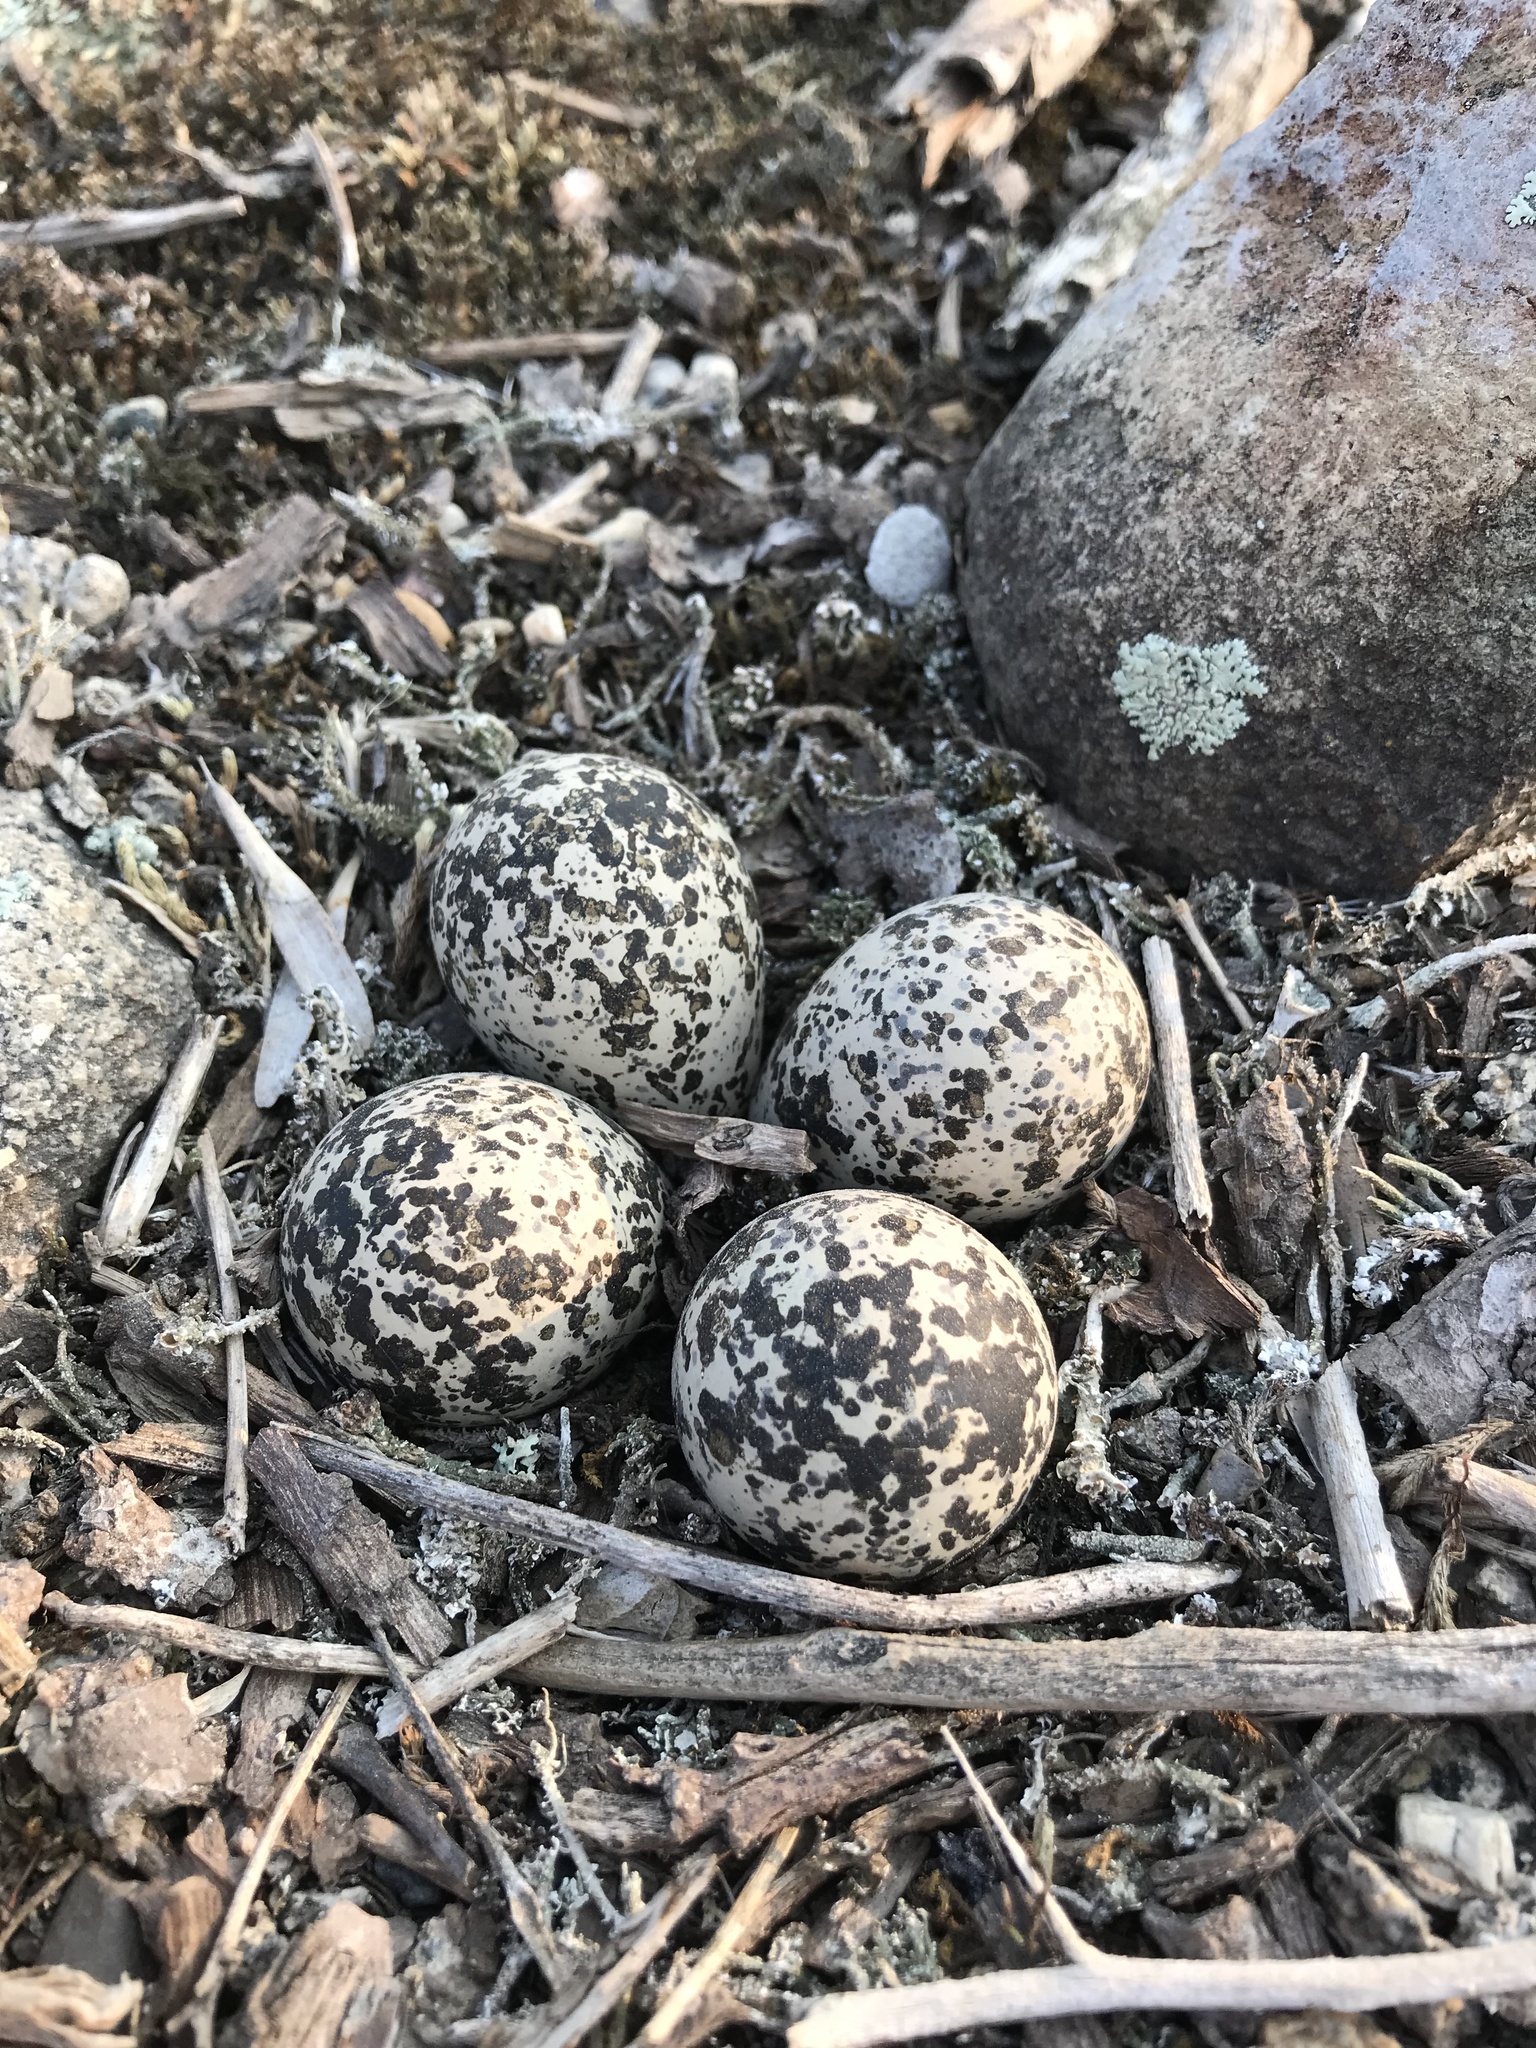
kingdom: Animalia
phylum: Chordata
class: Aves
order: Charadriiformes
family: Charadriidae
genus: Charadrius
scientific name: Charadrius vociferus
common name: Killdeer
